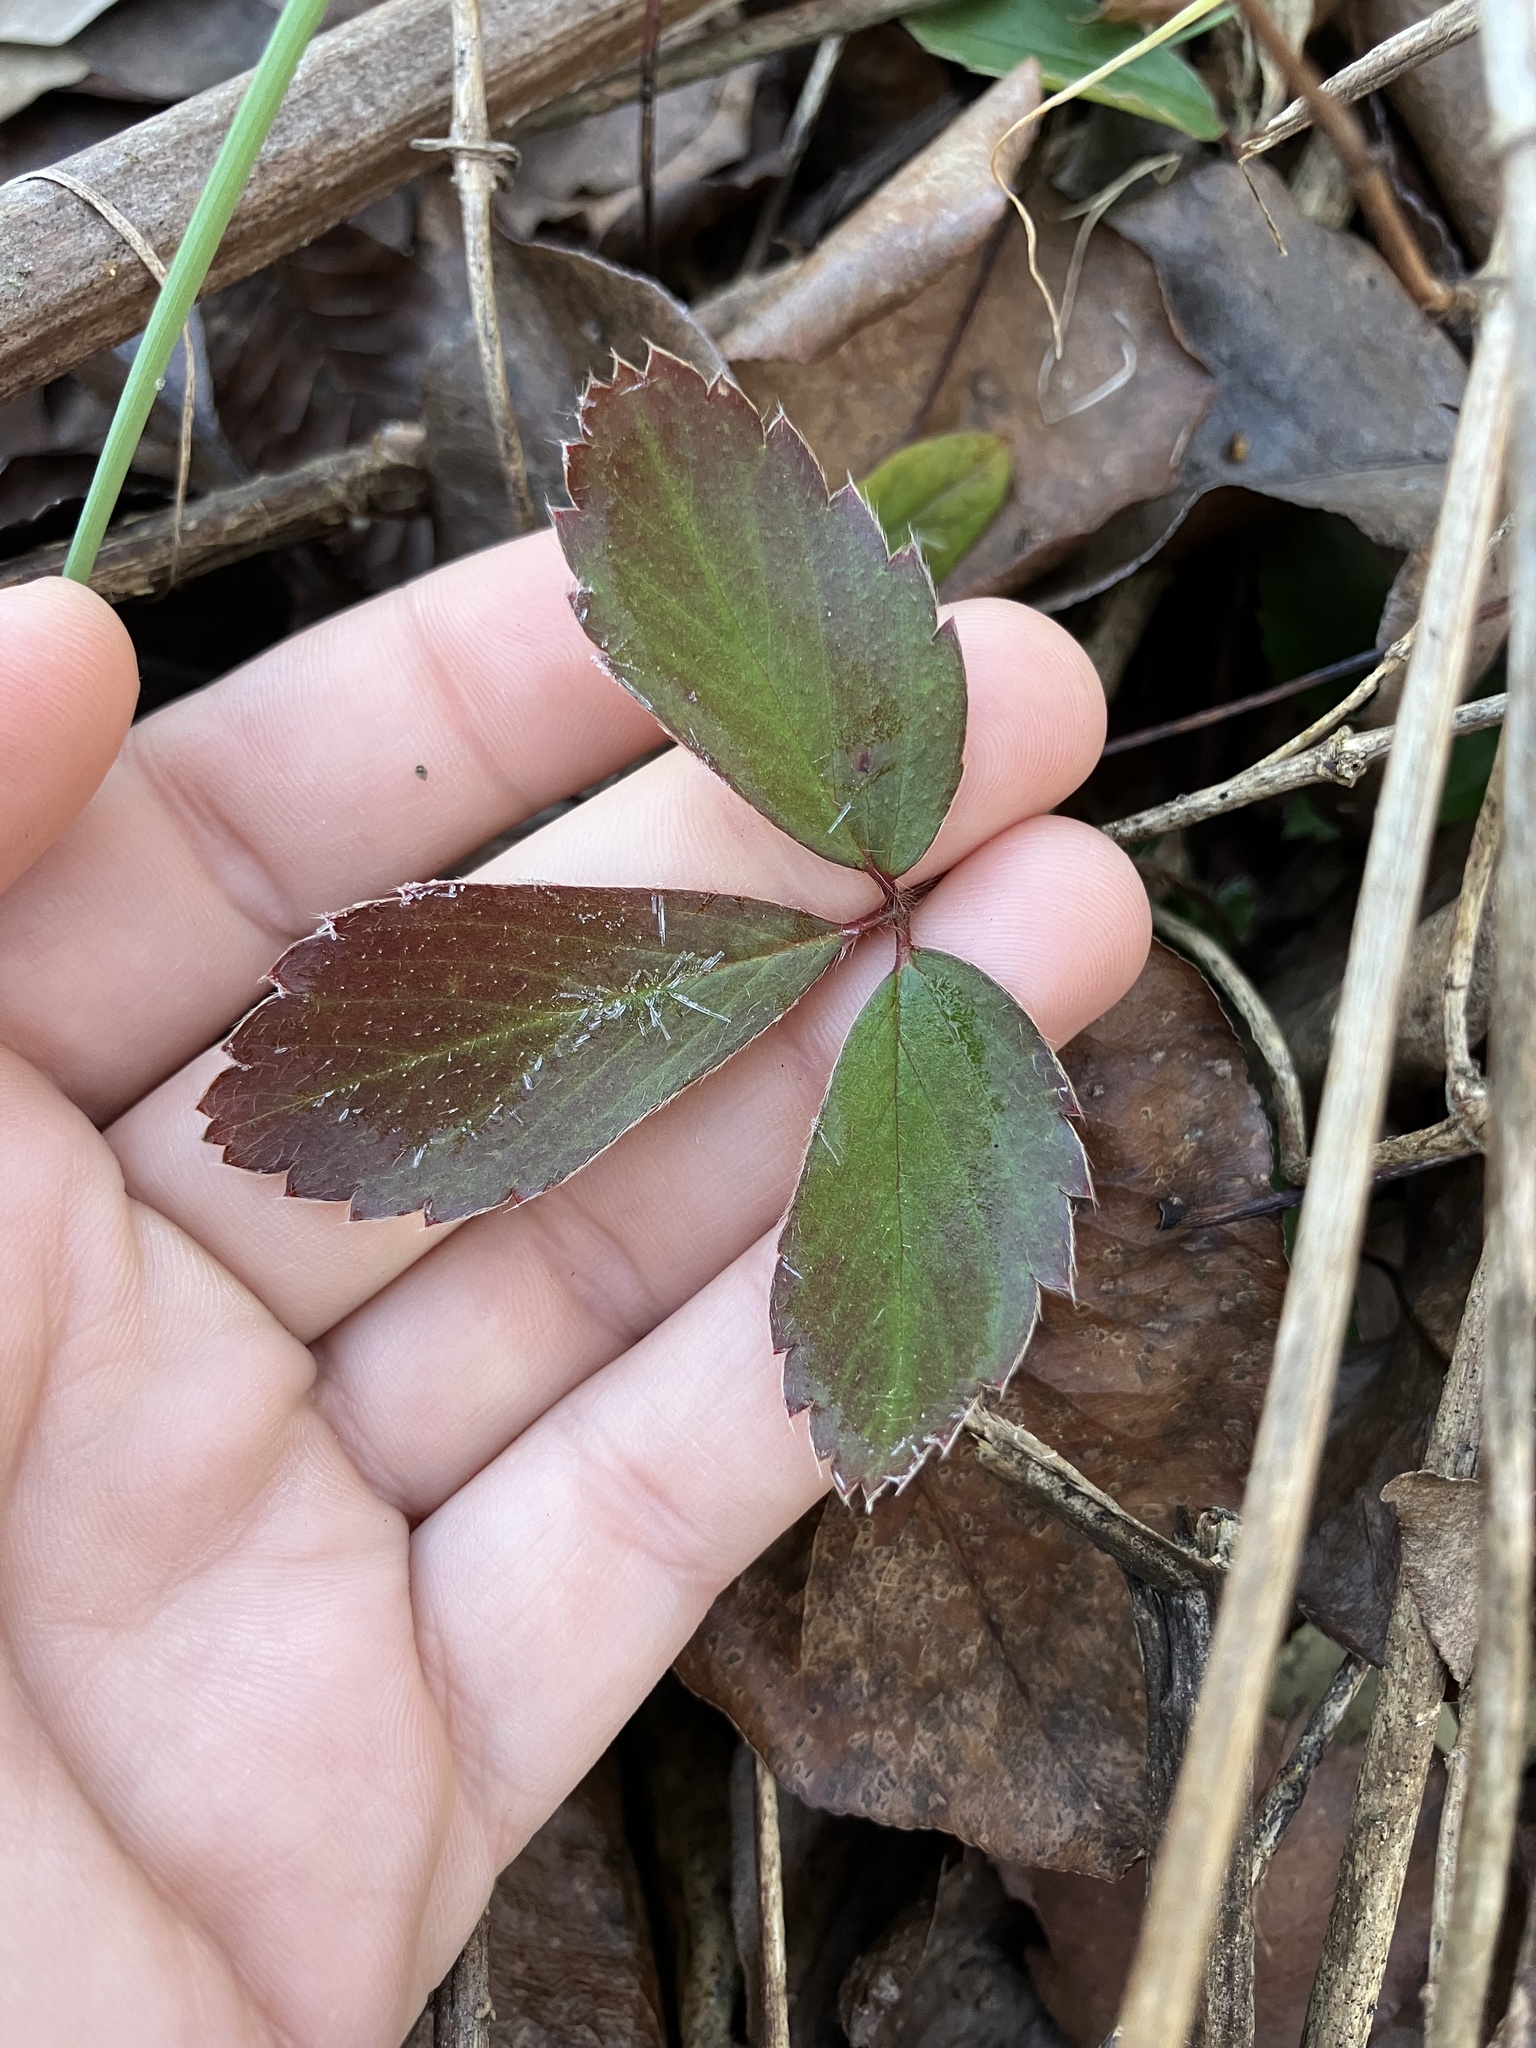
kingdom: Plantae
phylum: Tracheophyta
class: Magnoliopsida
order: Rosales
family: Rosaceae
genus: Fragaria
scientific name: Fragaria virginiana
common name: Thickleaved wild strawberry
